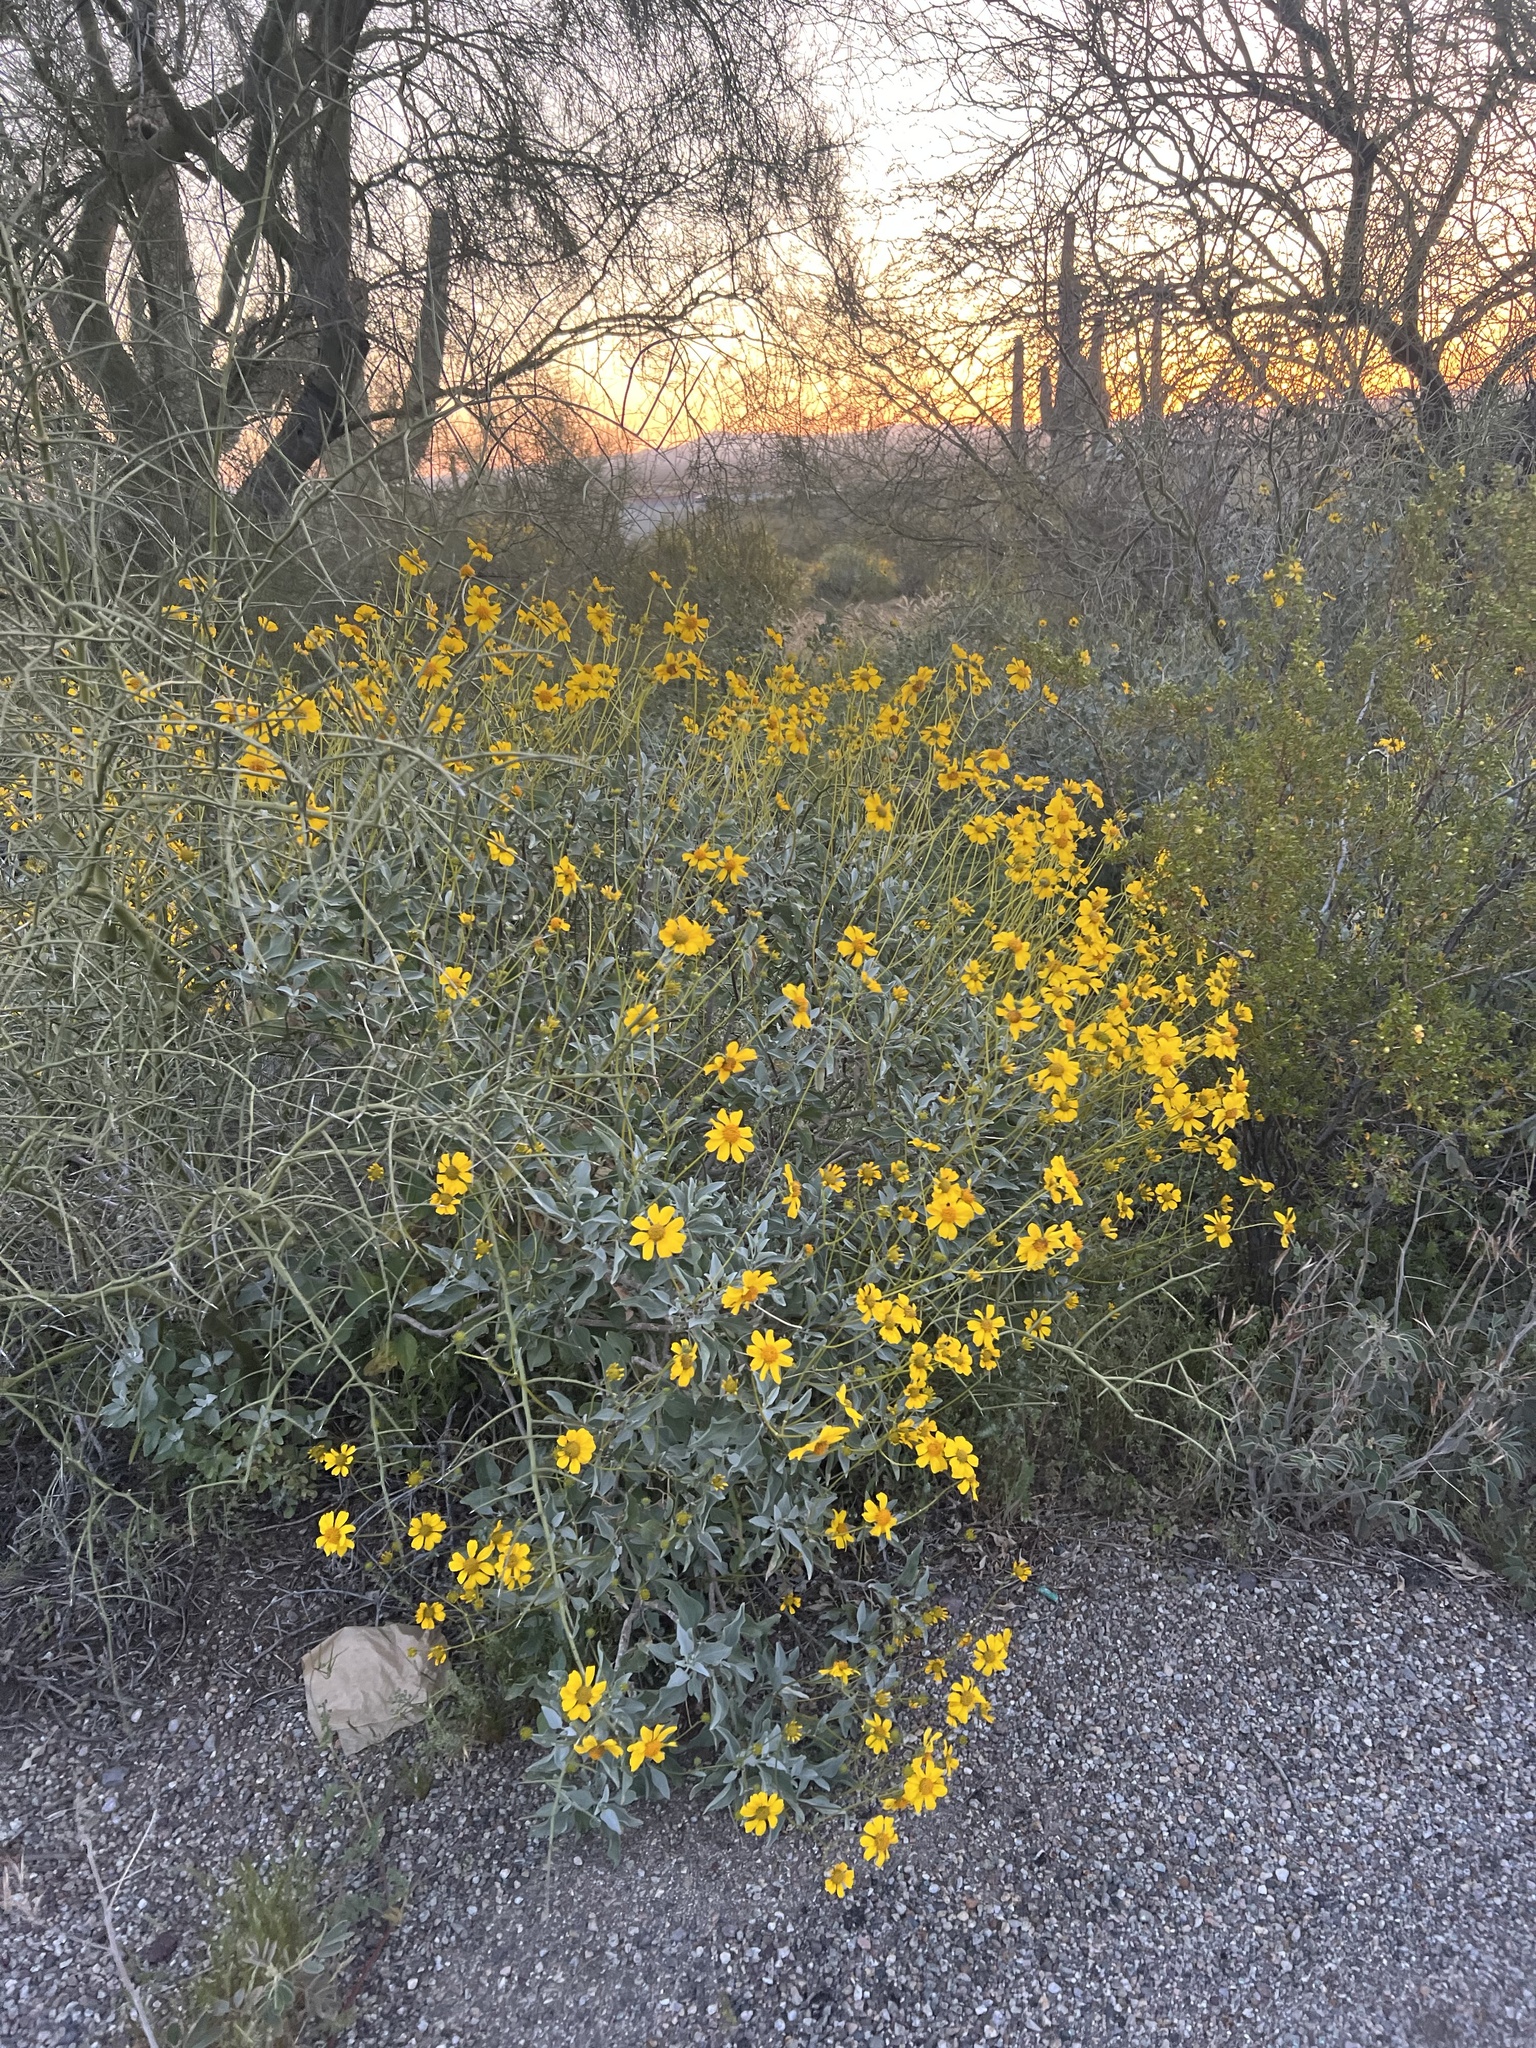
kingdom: Plantae
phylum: Tracheophyta
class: Magnoliopsida
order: Asterales
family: Asteraceae
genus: Encelia
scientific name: Encelia farinosa
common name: Brittlebush
